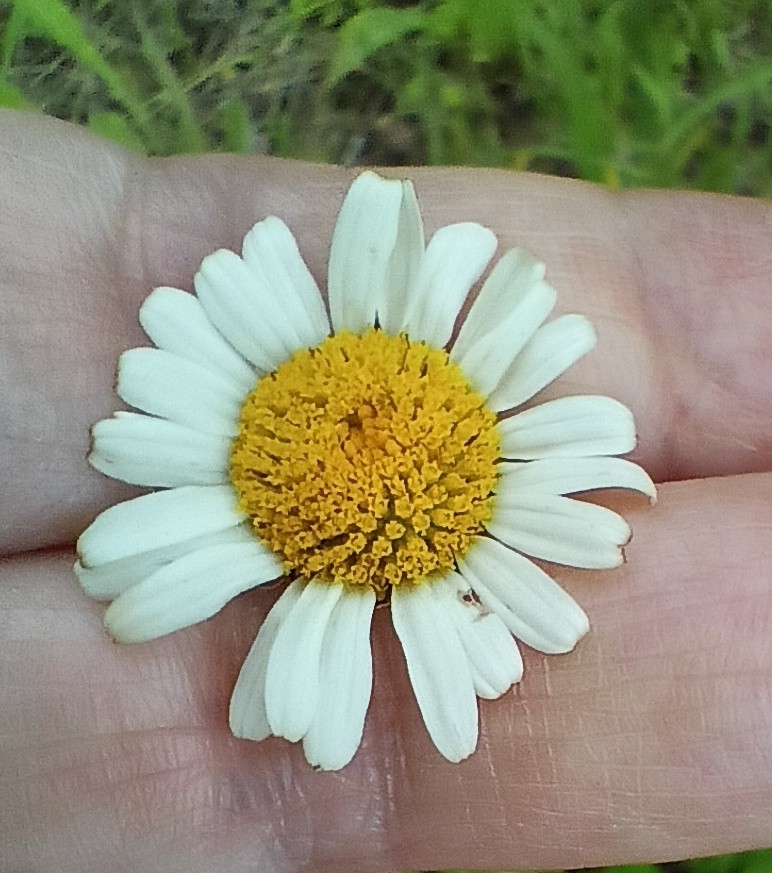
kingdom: Plantae
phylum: Tracheophyta
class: Magnoliopsida
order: Asterales
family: Asteraceae
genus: Leucanthemum
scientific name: Leucanthemum vulgare
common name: Oxeye daisy
